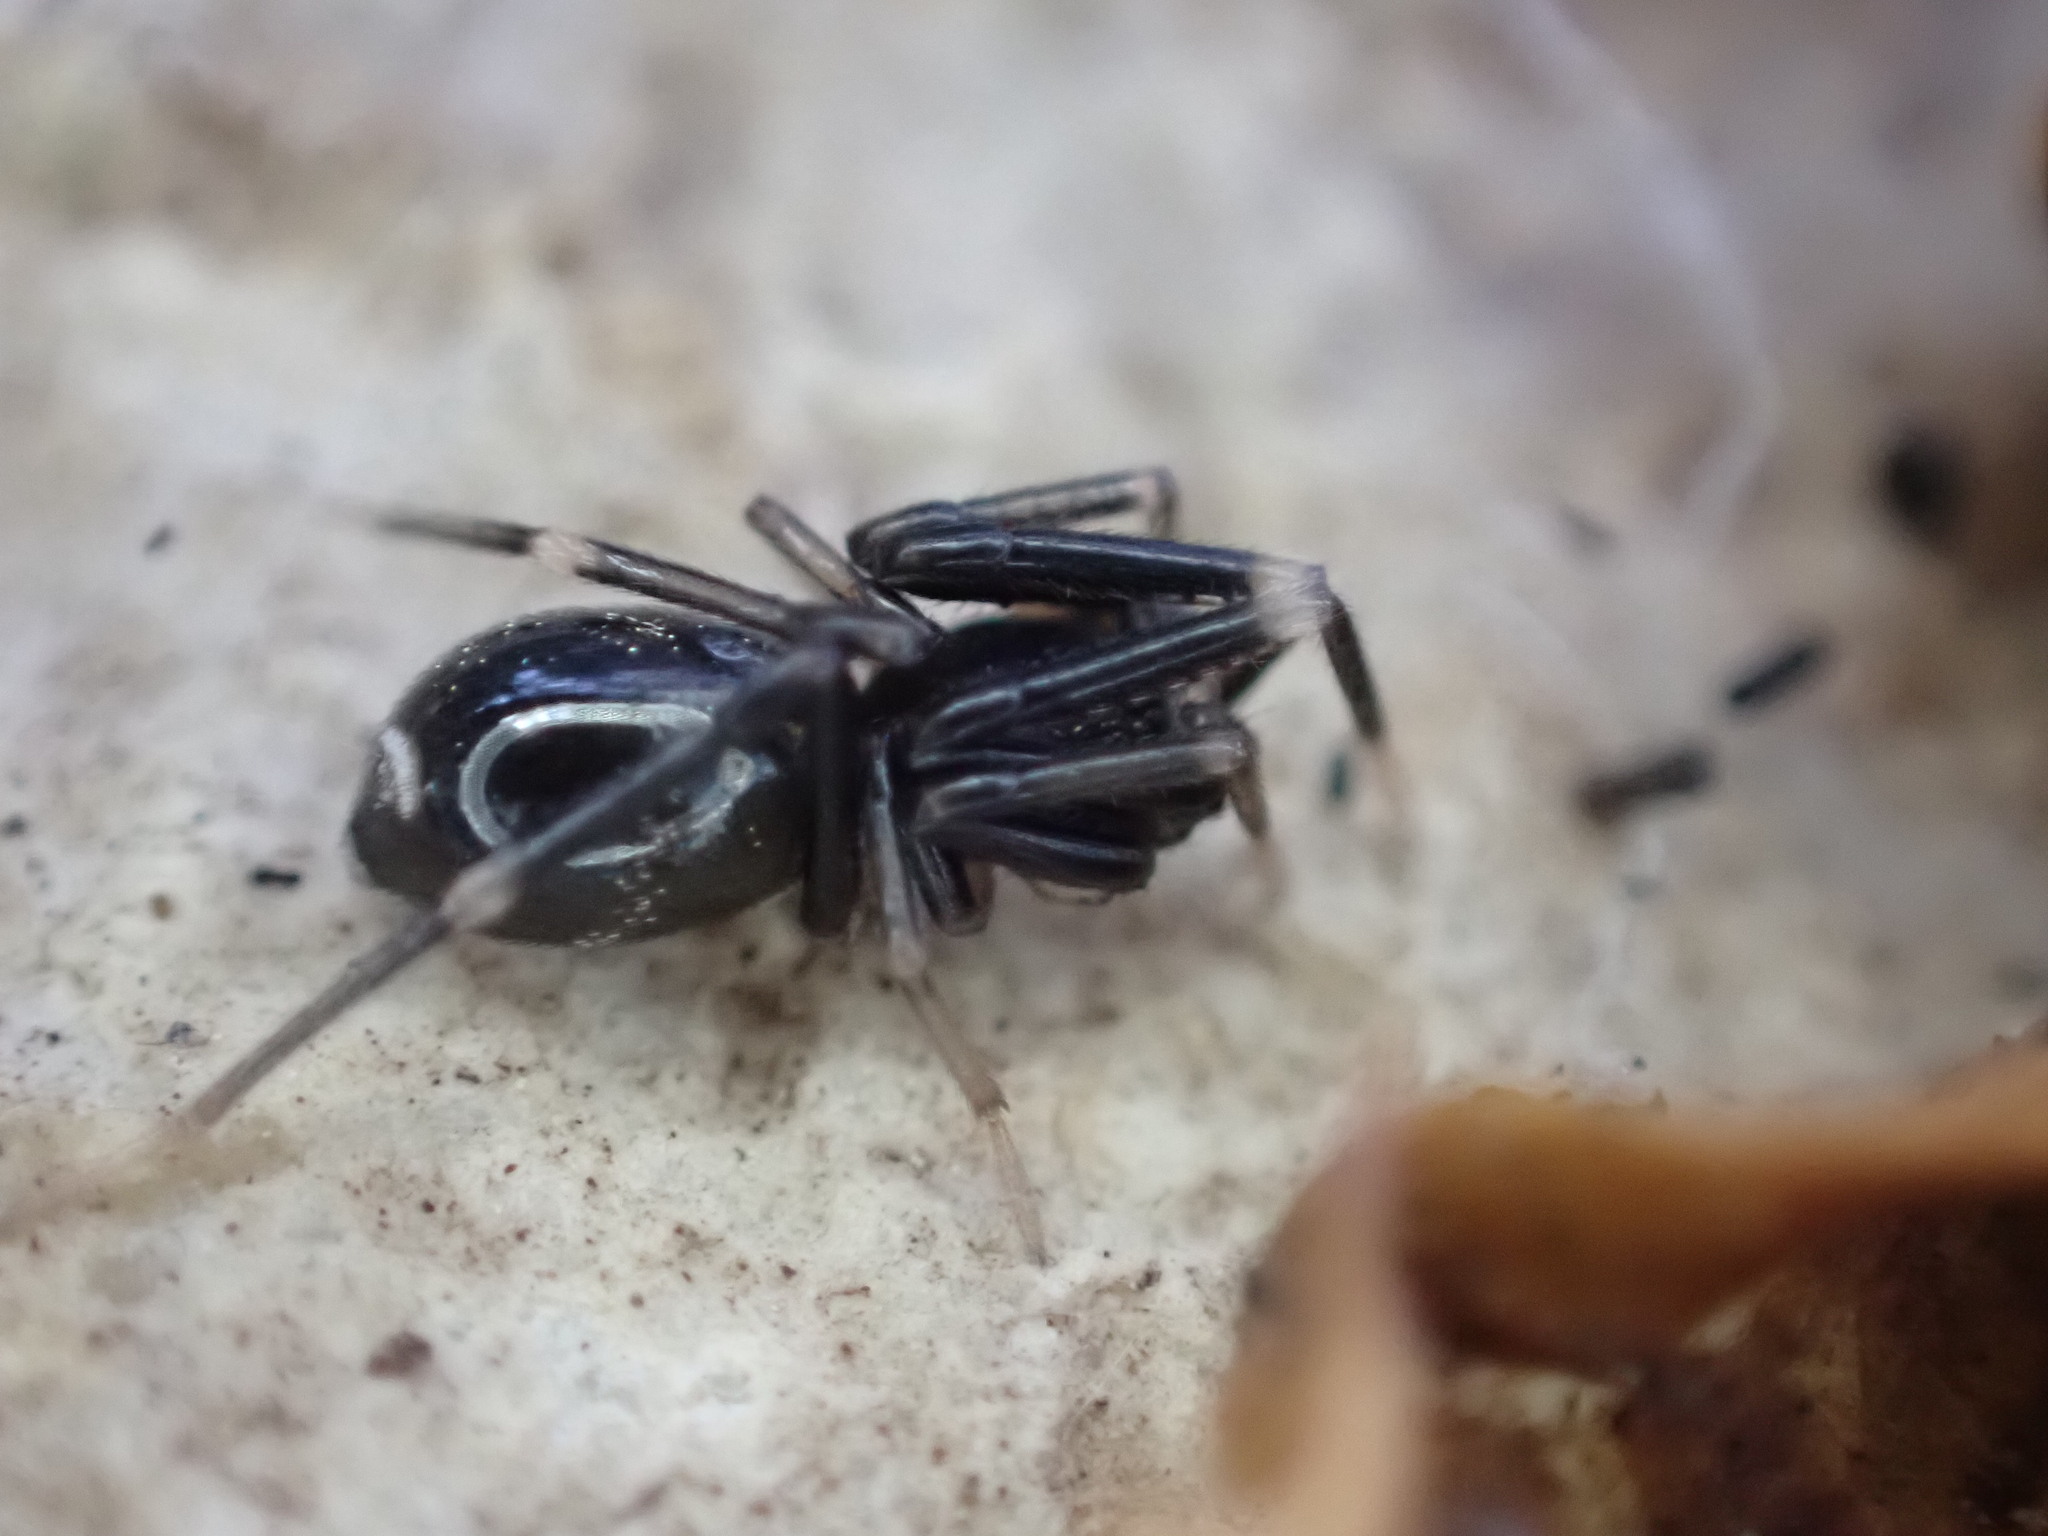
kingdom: Animalia
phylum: Arthropoda
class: Arachnida
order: Araneae
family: Phrurolithidae
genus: Liophrurillus
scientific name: Liophrurillus flavitarsis
